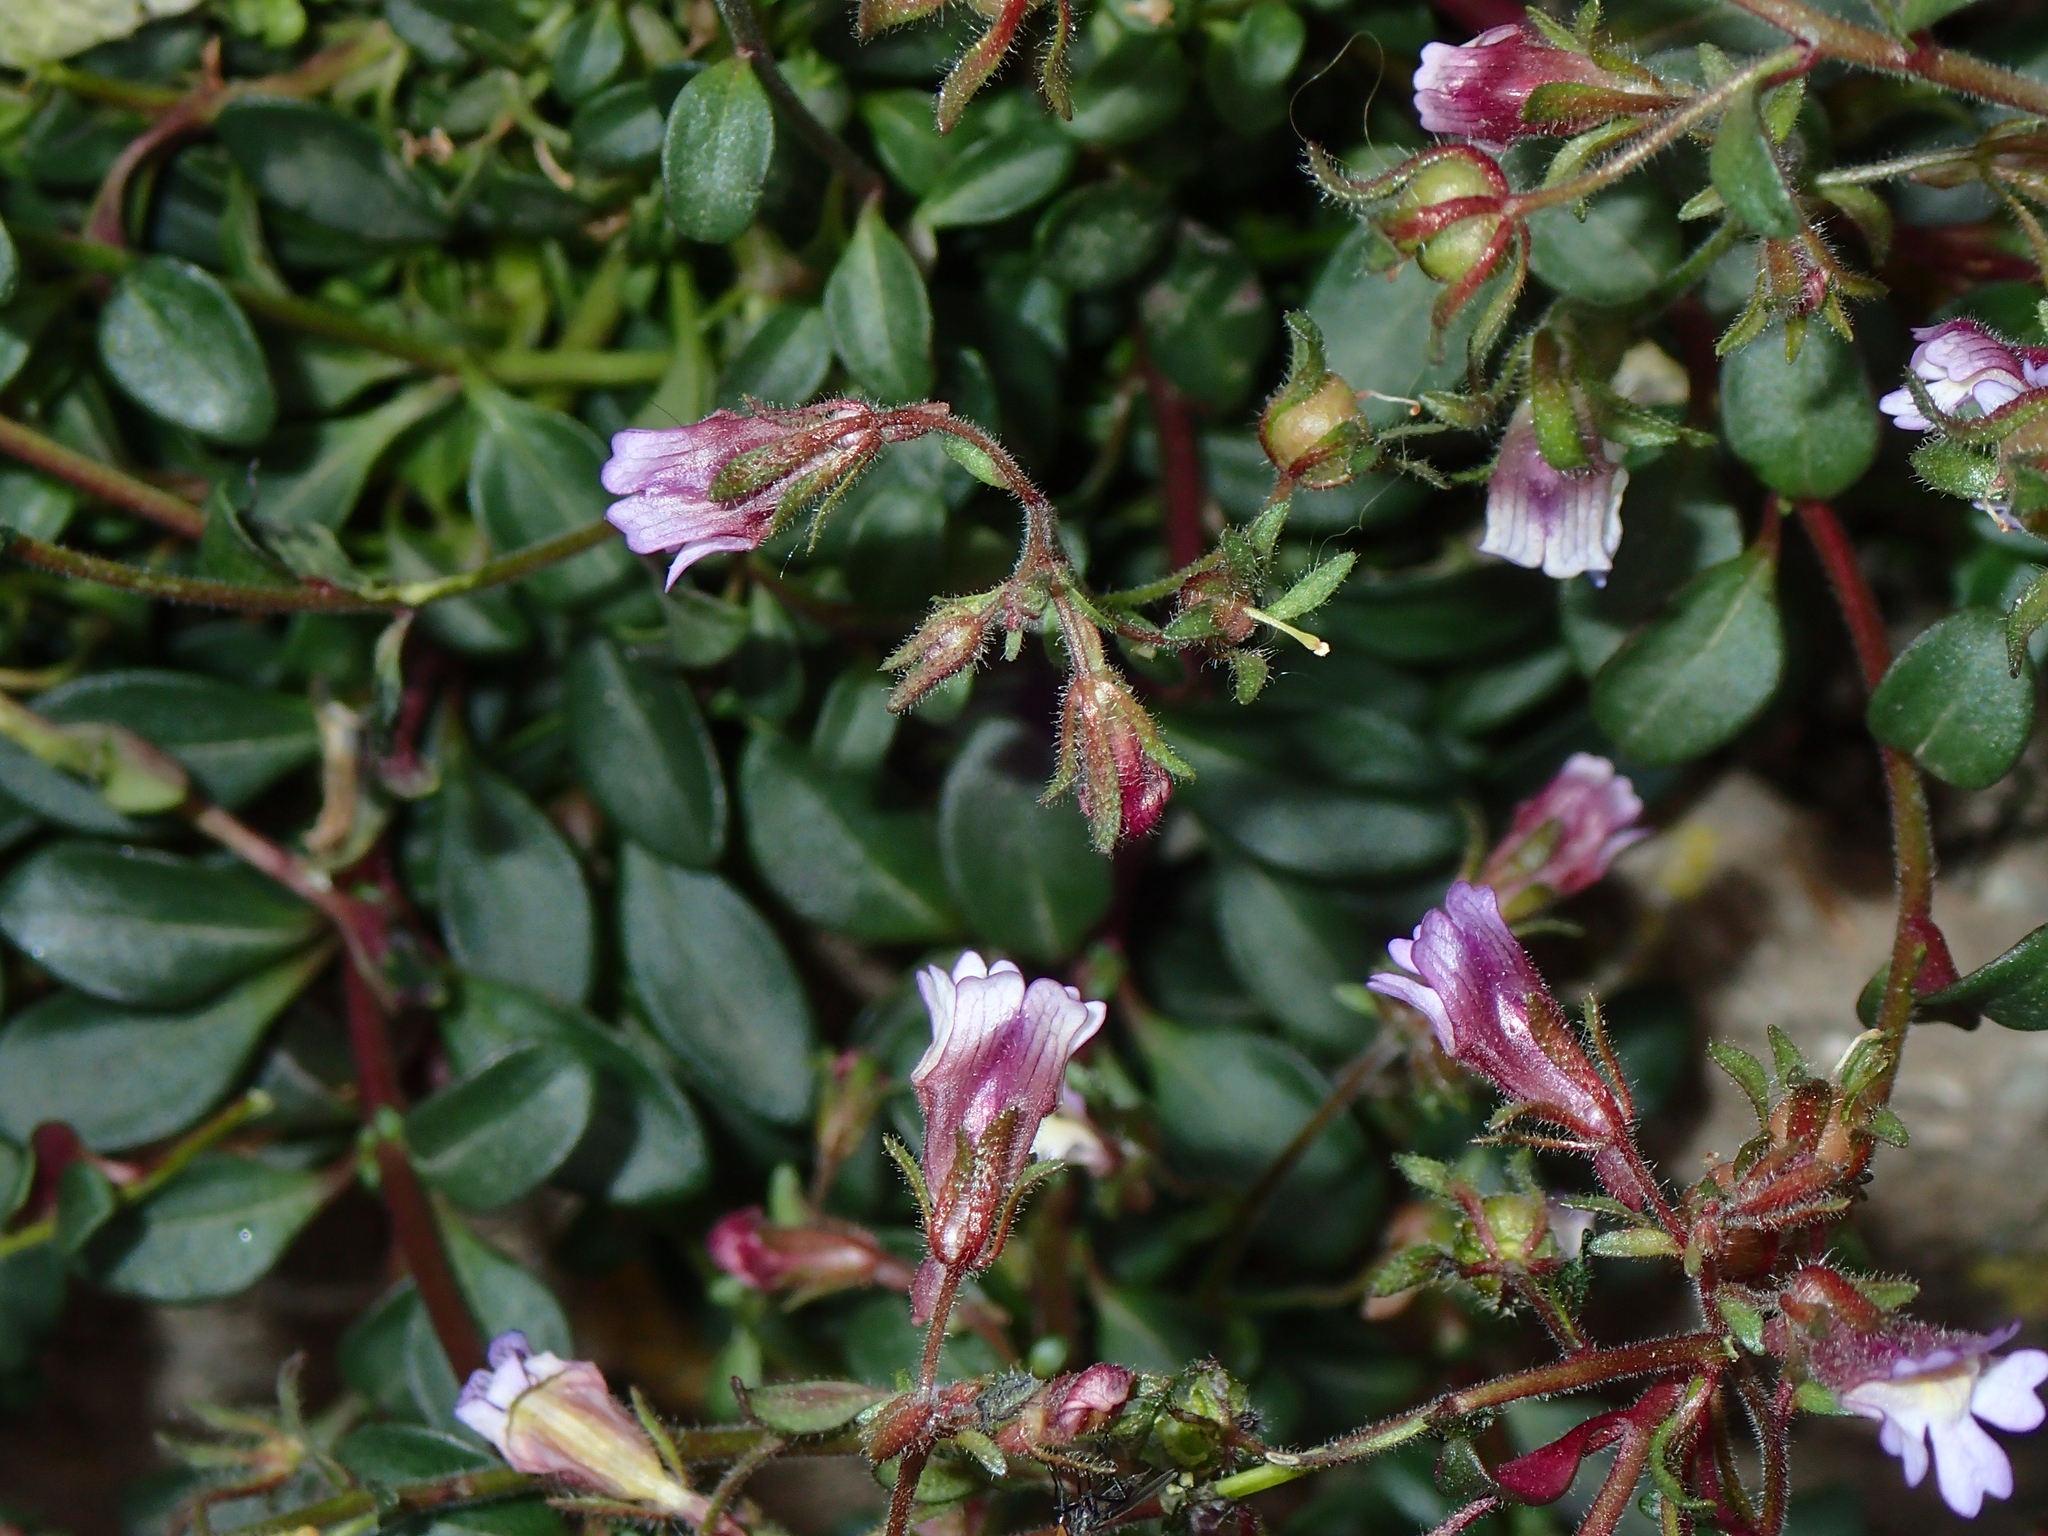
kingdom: Plantae
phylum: Tracheophyta
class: Magnoliopsida
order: Lamiales
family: Plantaginaceae
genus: Chaenorhinum
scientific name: Chaenorhinum origanifolium
